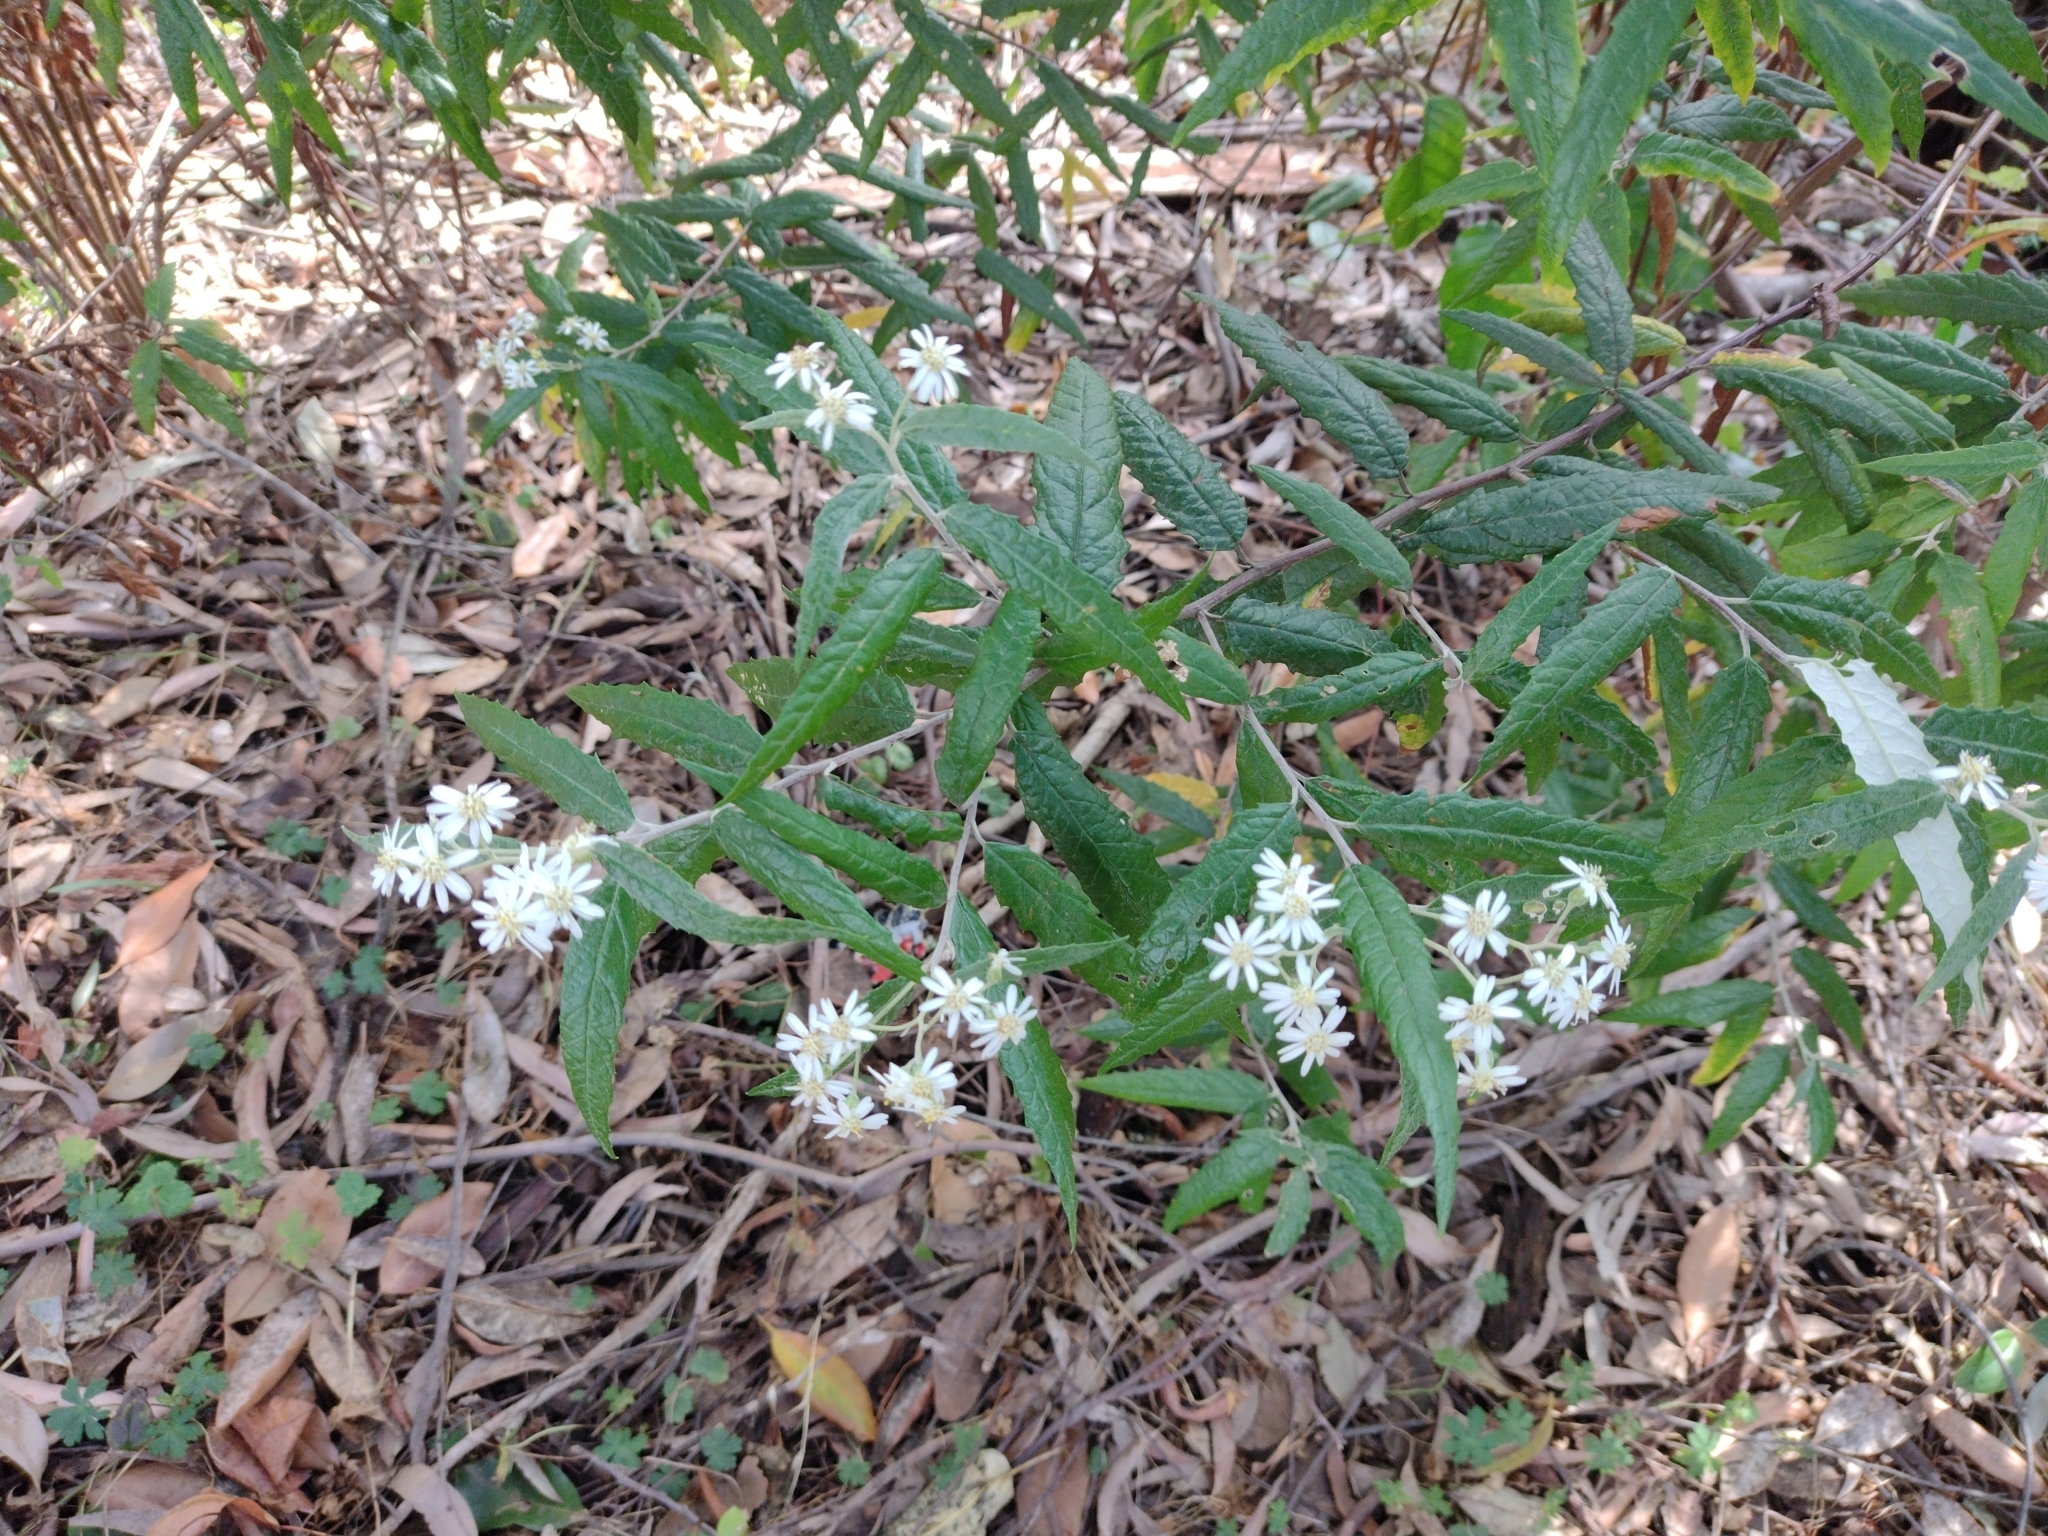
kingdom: Plantae
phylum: Tracheophyta
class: Magnoliopsida
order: Asterales
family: Asteraceae
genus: Olearia
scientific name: Olearia lirata
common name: Dusty daisybush
